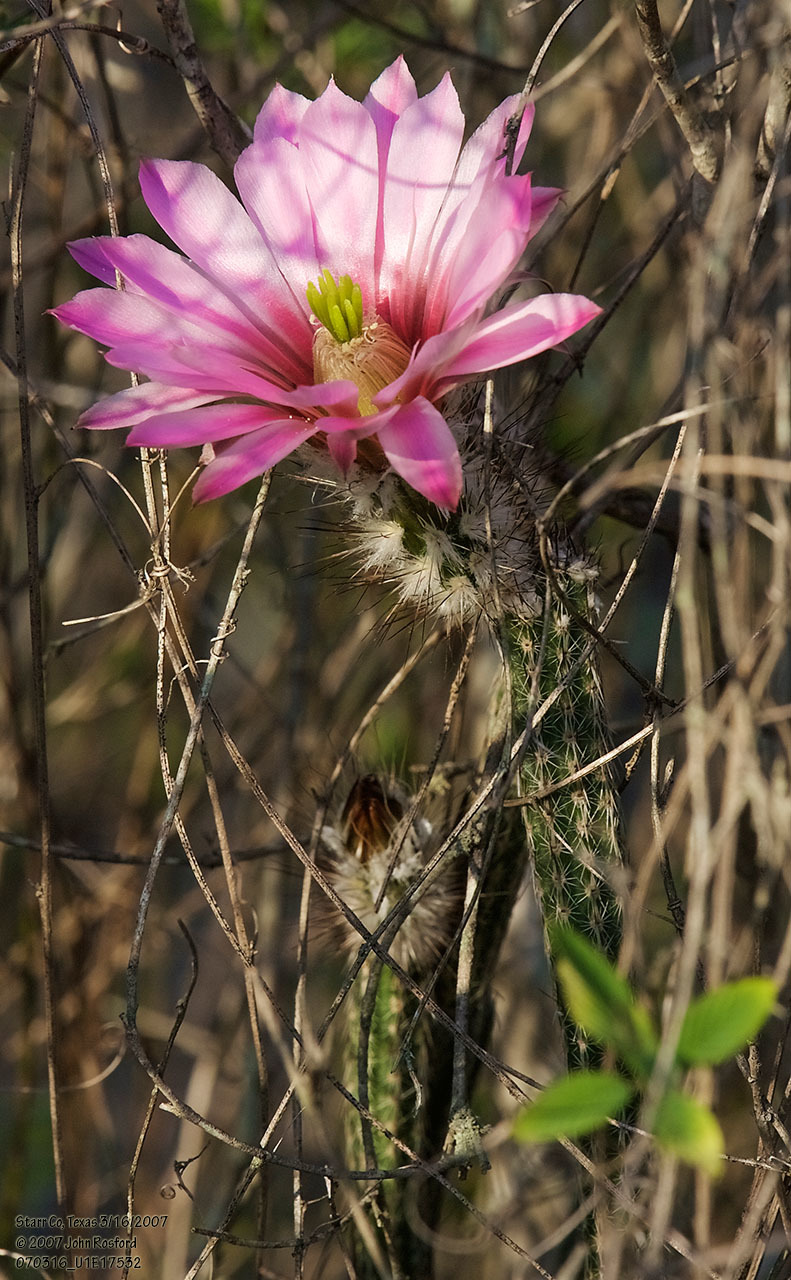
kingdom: Plantae
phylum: Tracheophyta
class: Magnoliopsida
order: Caryophyllales
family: Cactaceae
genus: Echinocereus
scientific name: Echinocereus poselgeri
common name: Dahlia apple cactus
